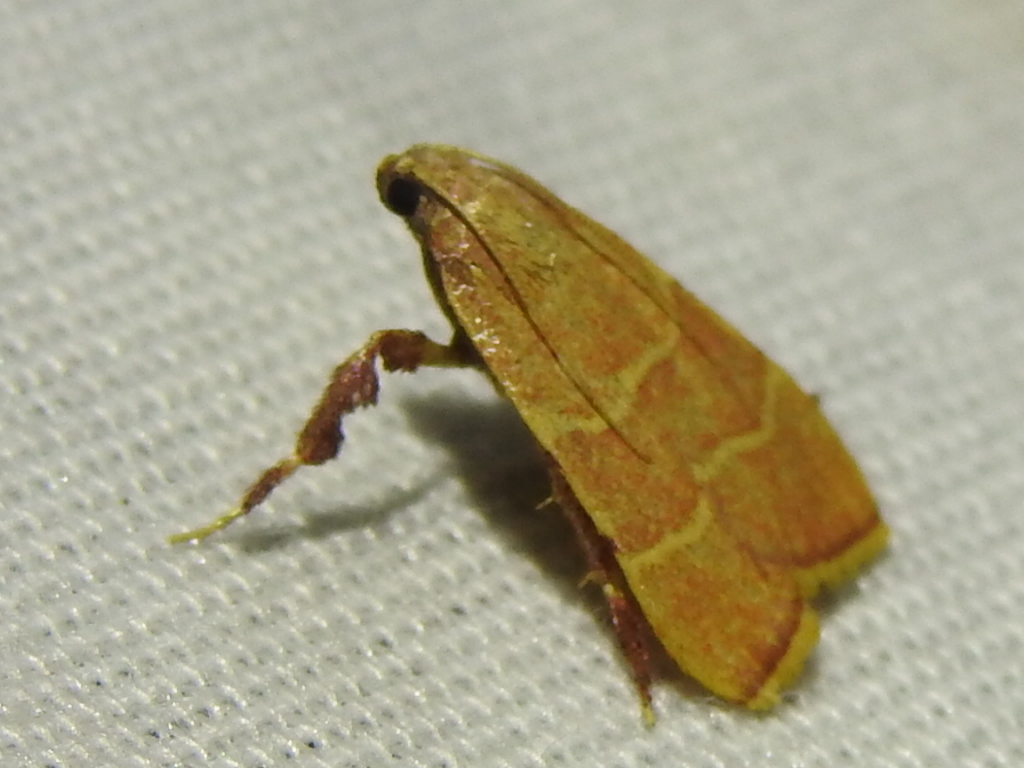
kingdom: Animalia
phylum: Arthropoda
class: Insecta
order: Lepidoptera
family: Pyralidae
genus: Parachma
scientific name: Parachma ochracealis
